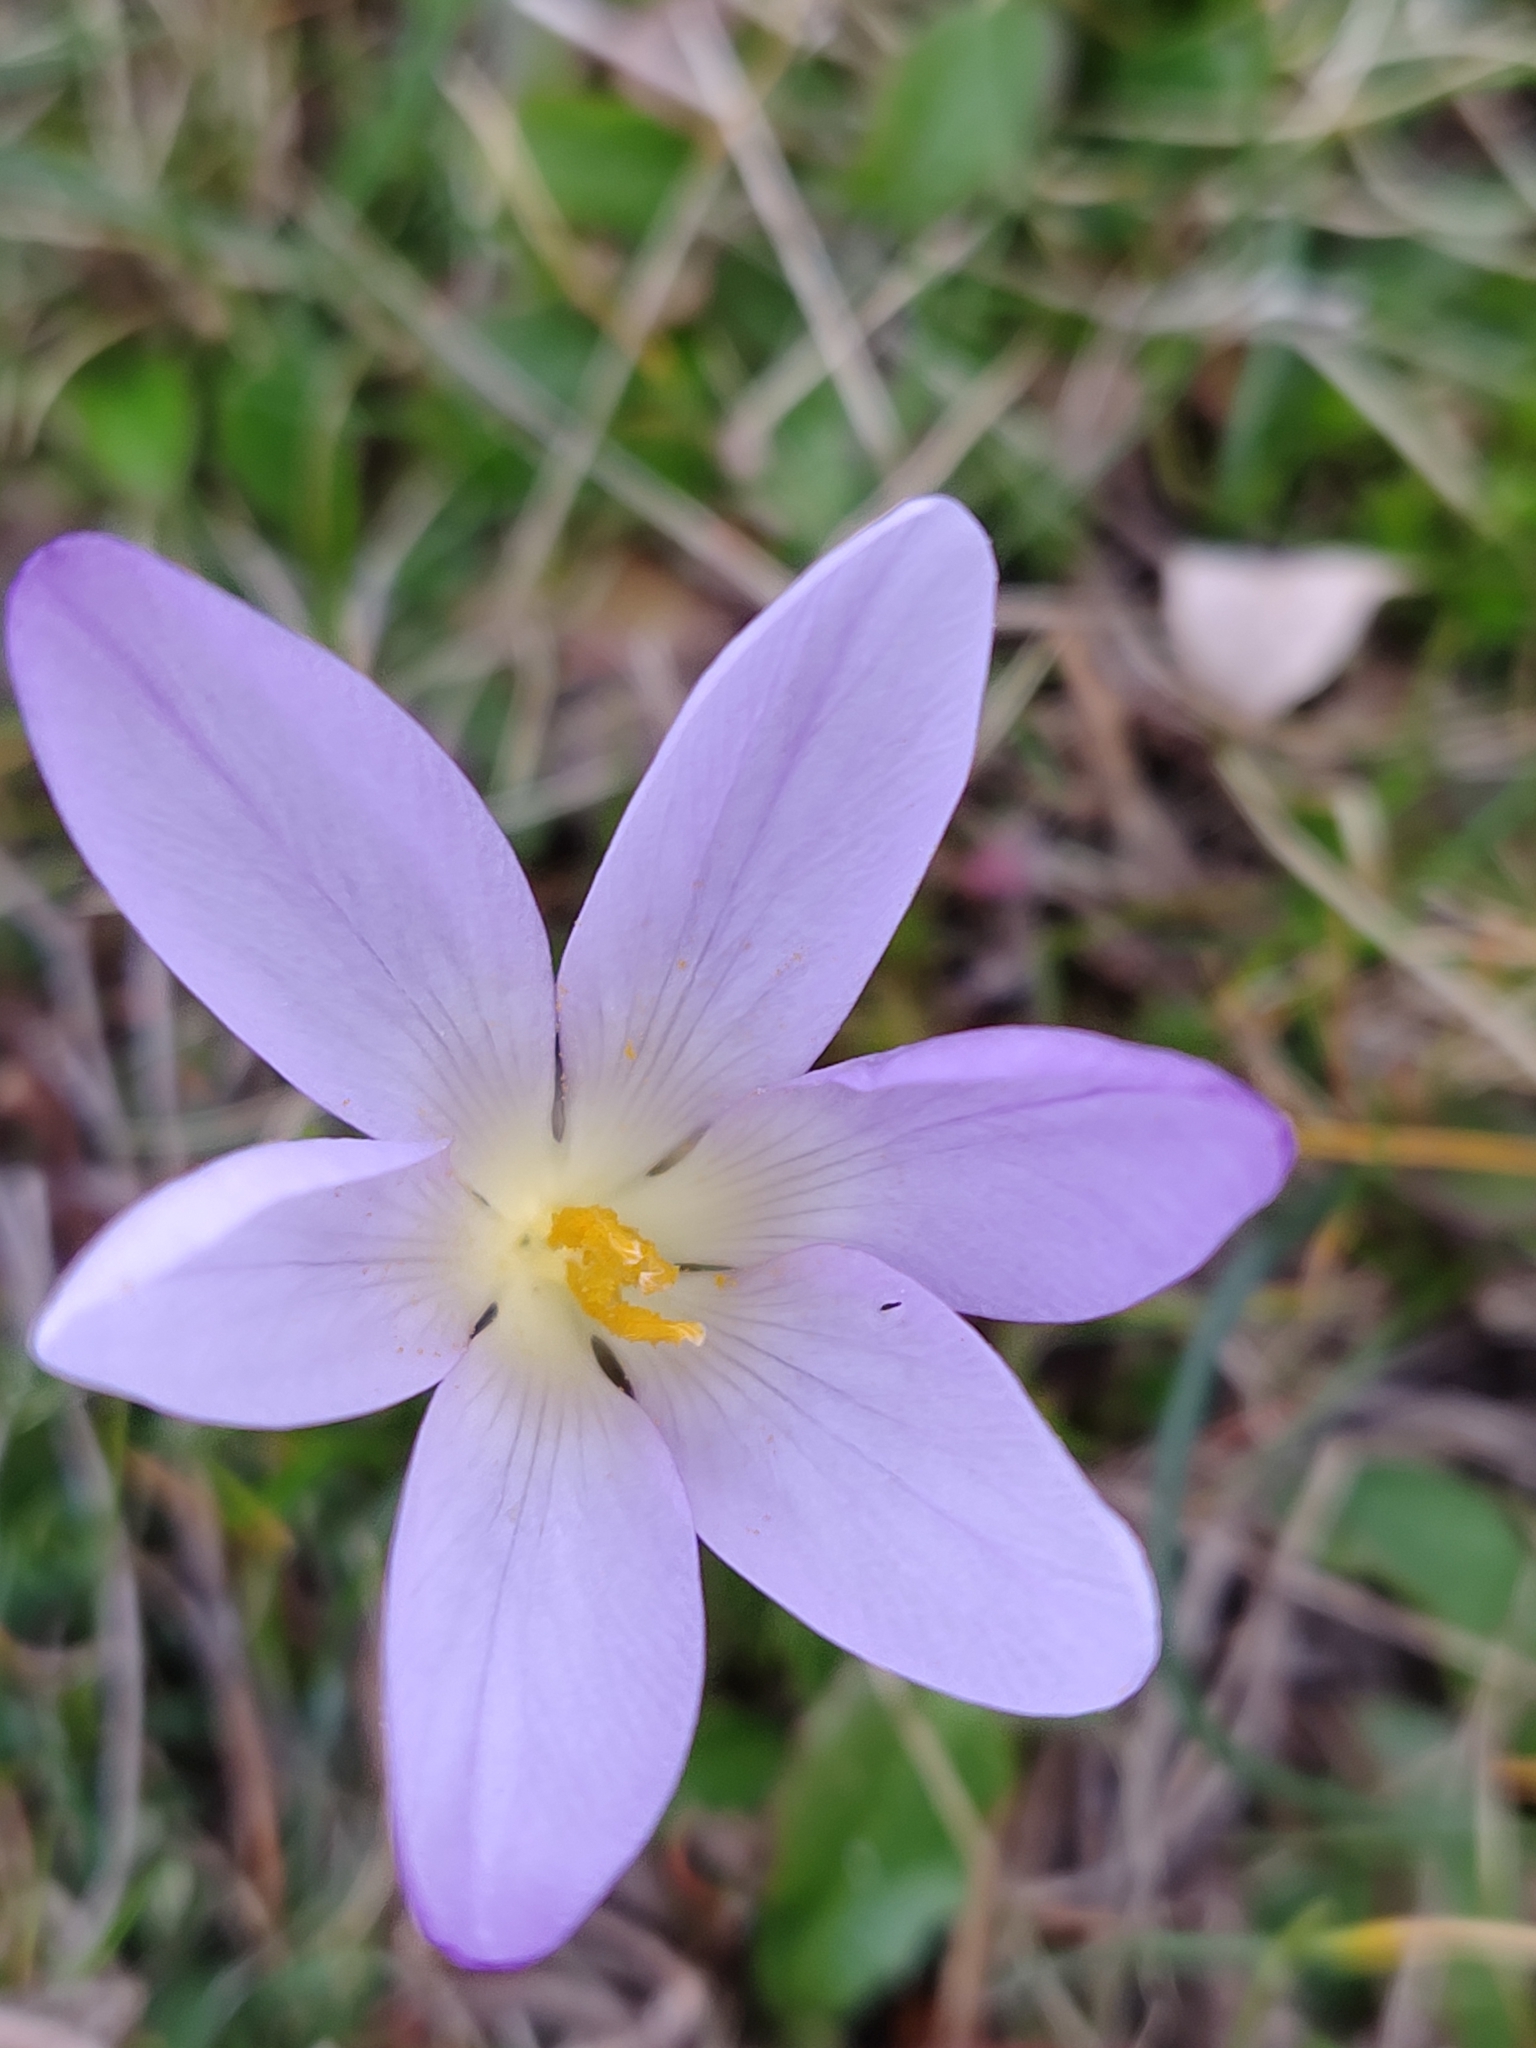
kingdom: Plantae
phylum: Tracheophyta
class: Liliopsida
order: Asparagales
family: Iridaceae
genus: Crocus
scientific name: Crocus carpetanus
